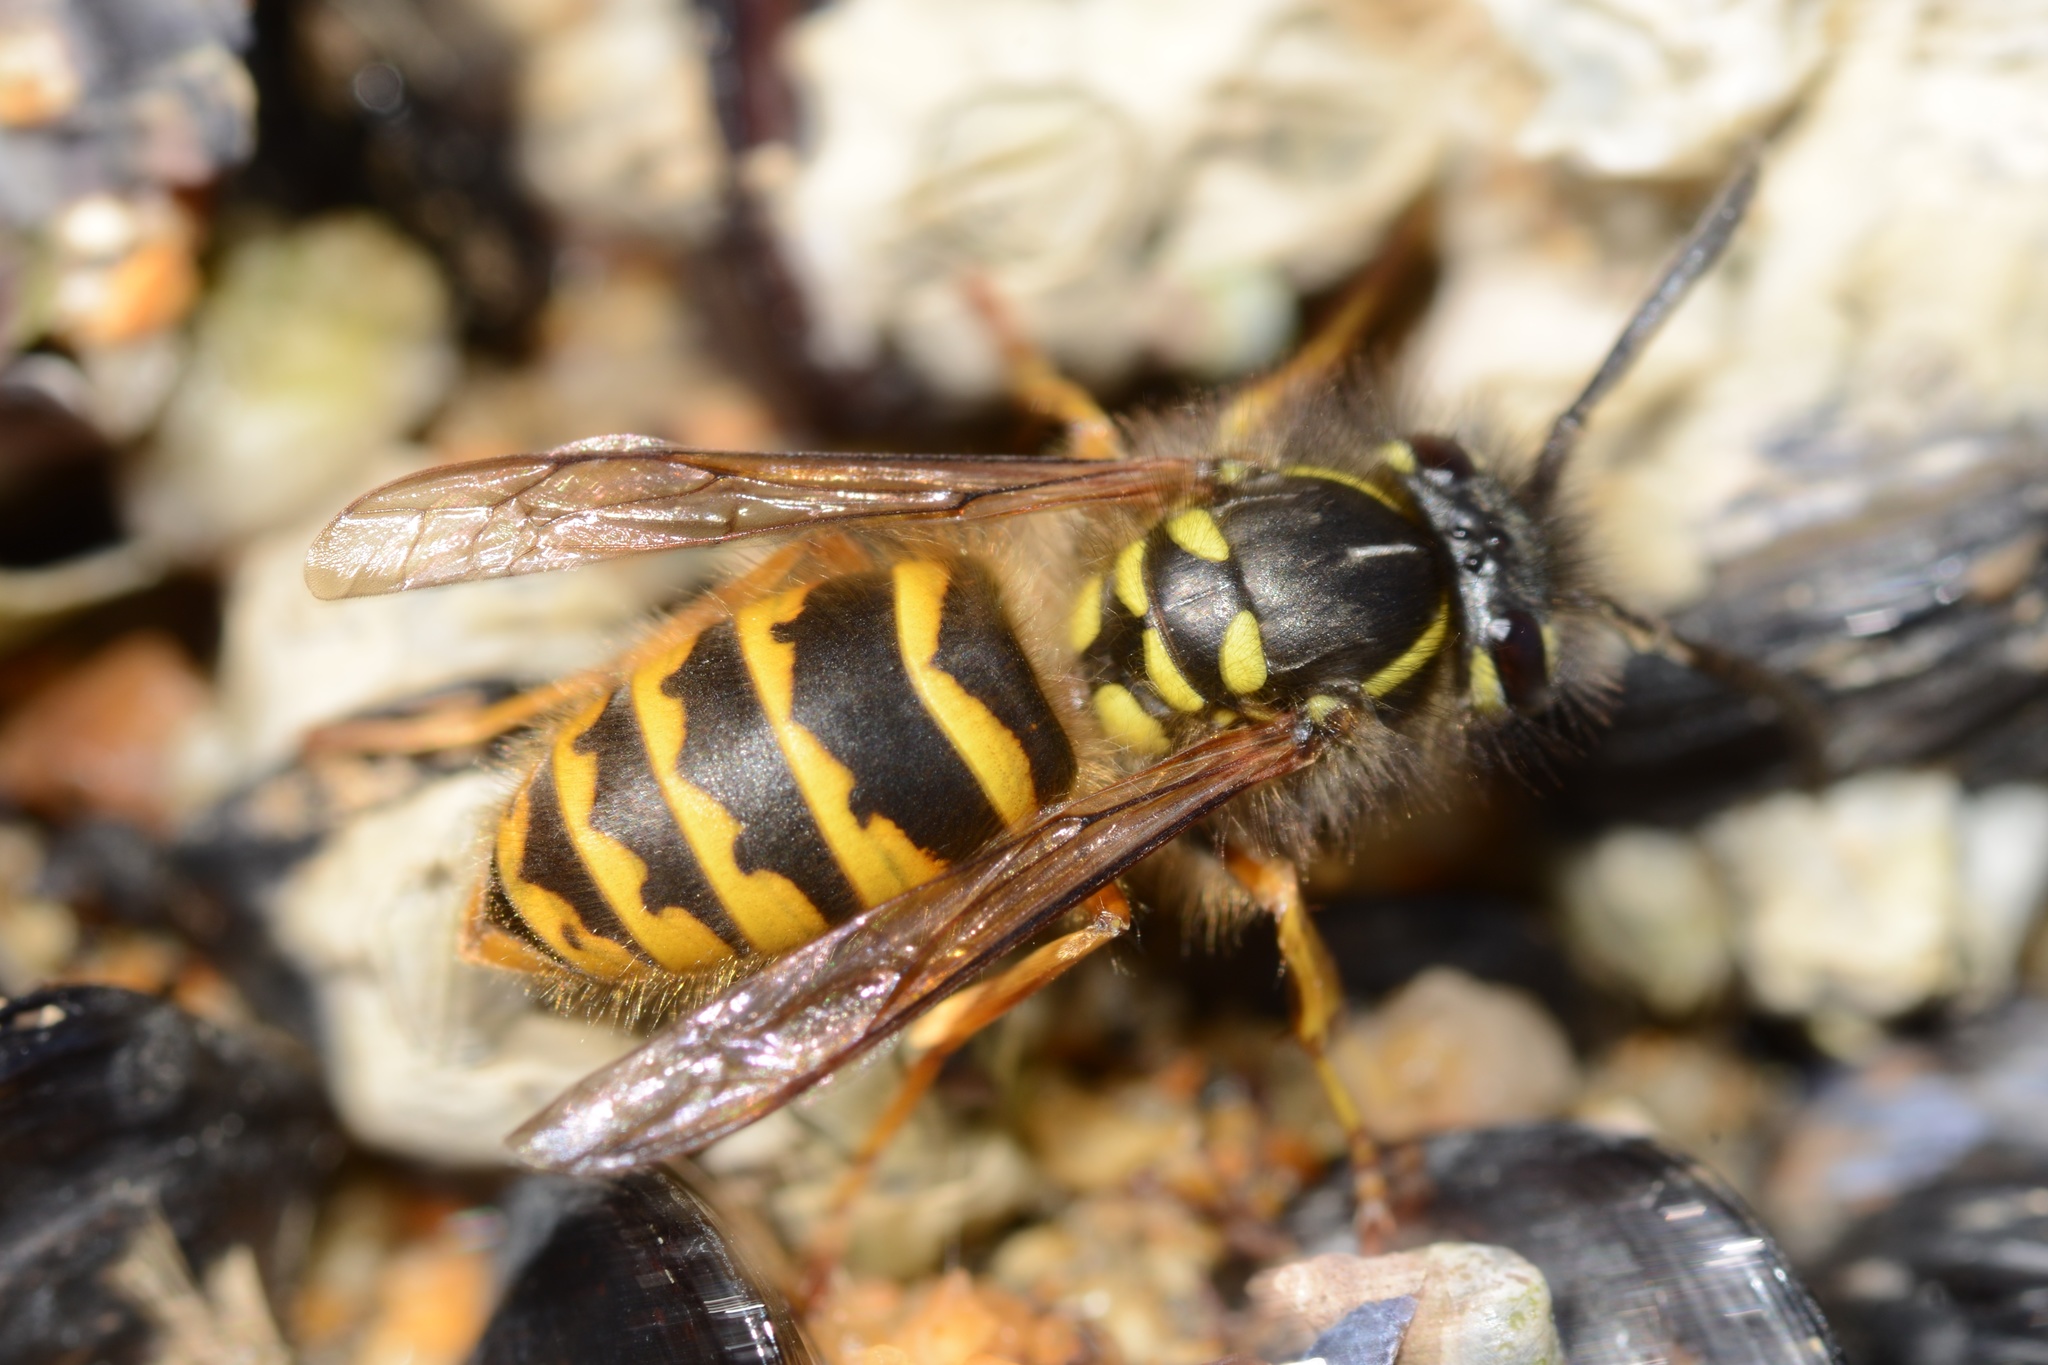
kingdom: Animalia
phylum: Arthropoda
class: Insecta
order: Hymenoptera
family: Vespidae
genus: Vespula
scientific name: Vespula vulgaris
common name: Common wasp
